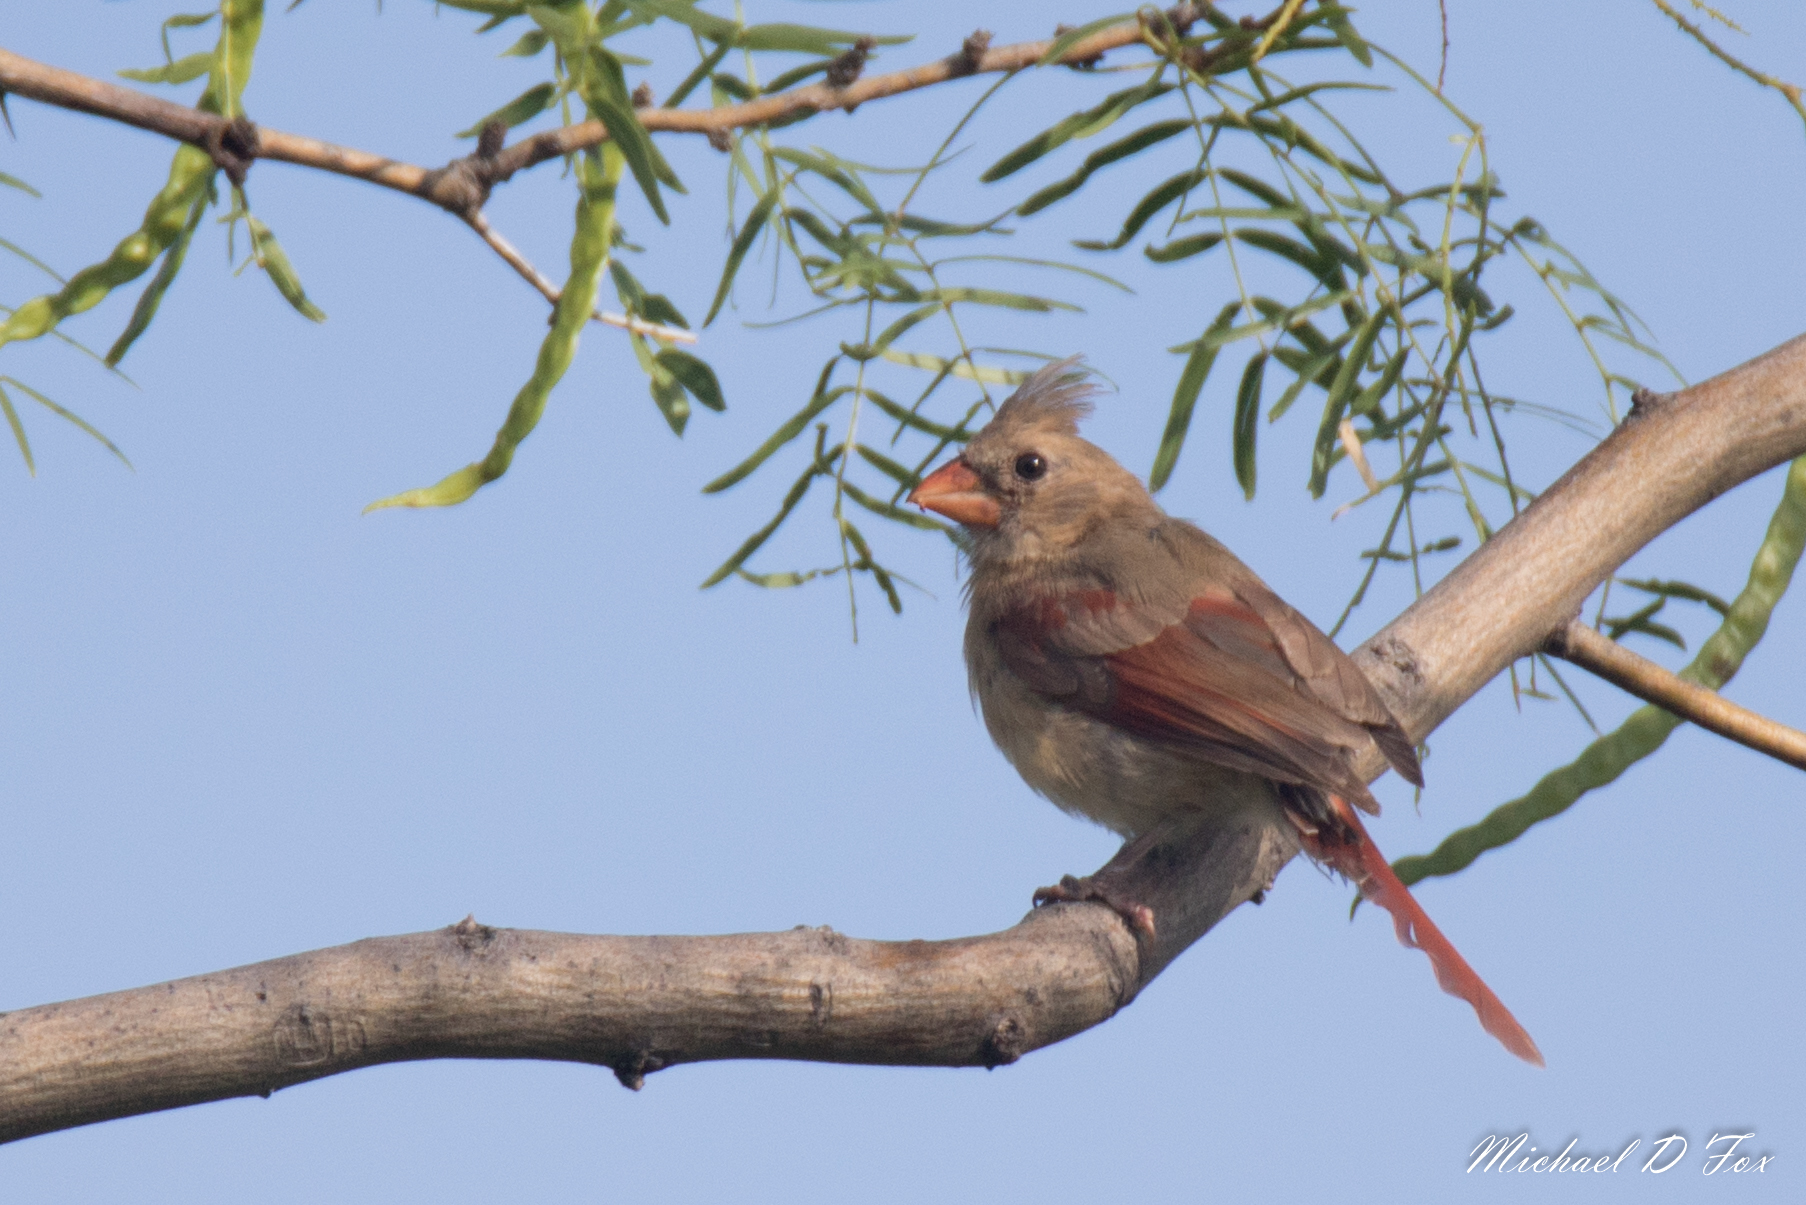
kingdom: Animalia
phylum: Chordata
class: Aves
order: Passeriformes
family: Cardinalidae
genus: Cardinalis
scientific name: Cardinalis cardinalis
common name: Northern cardinal
